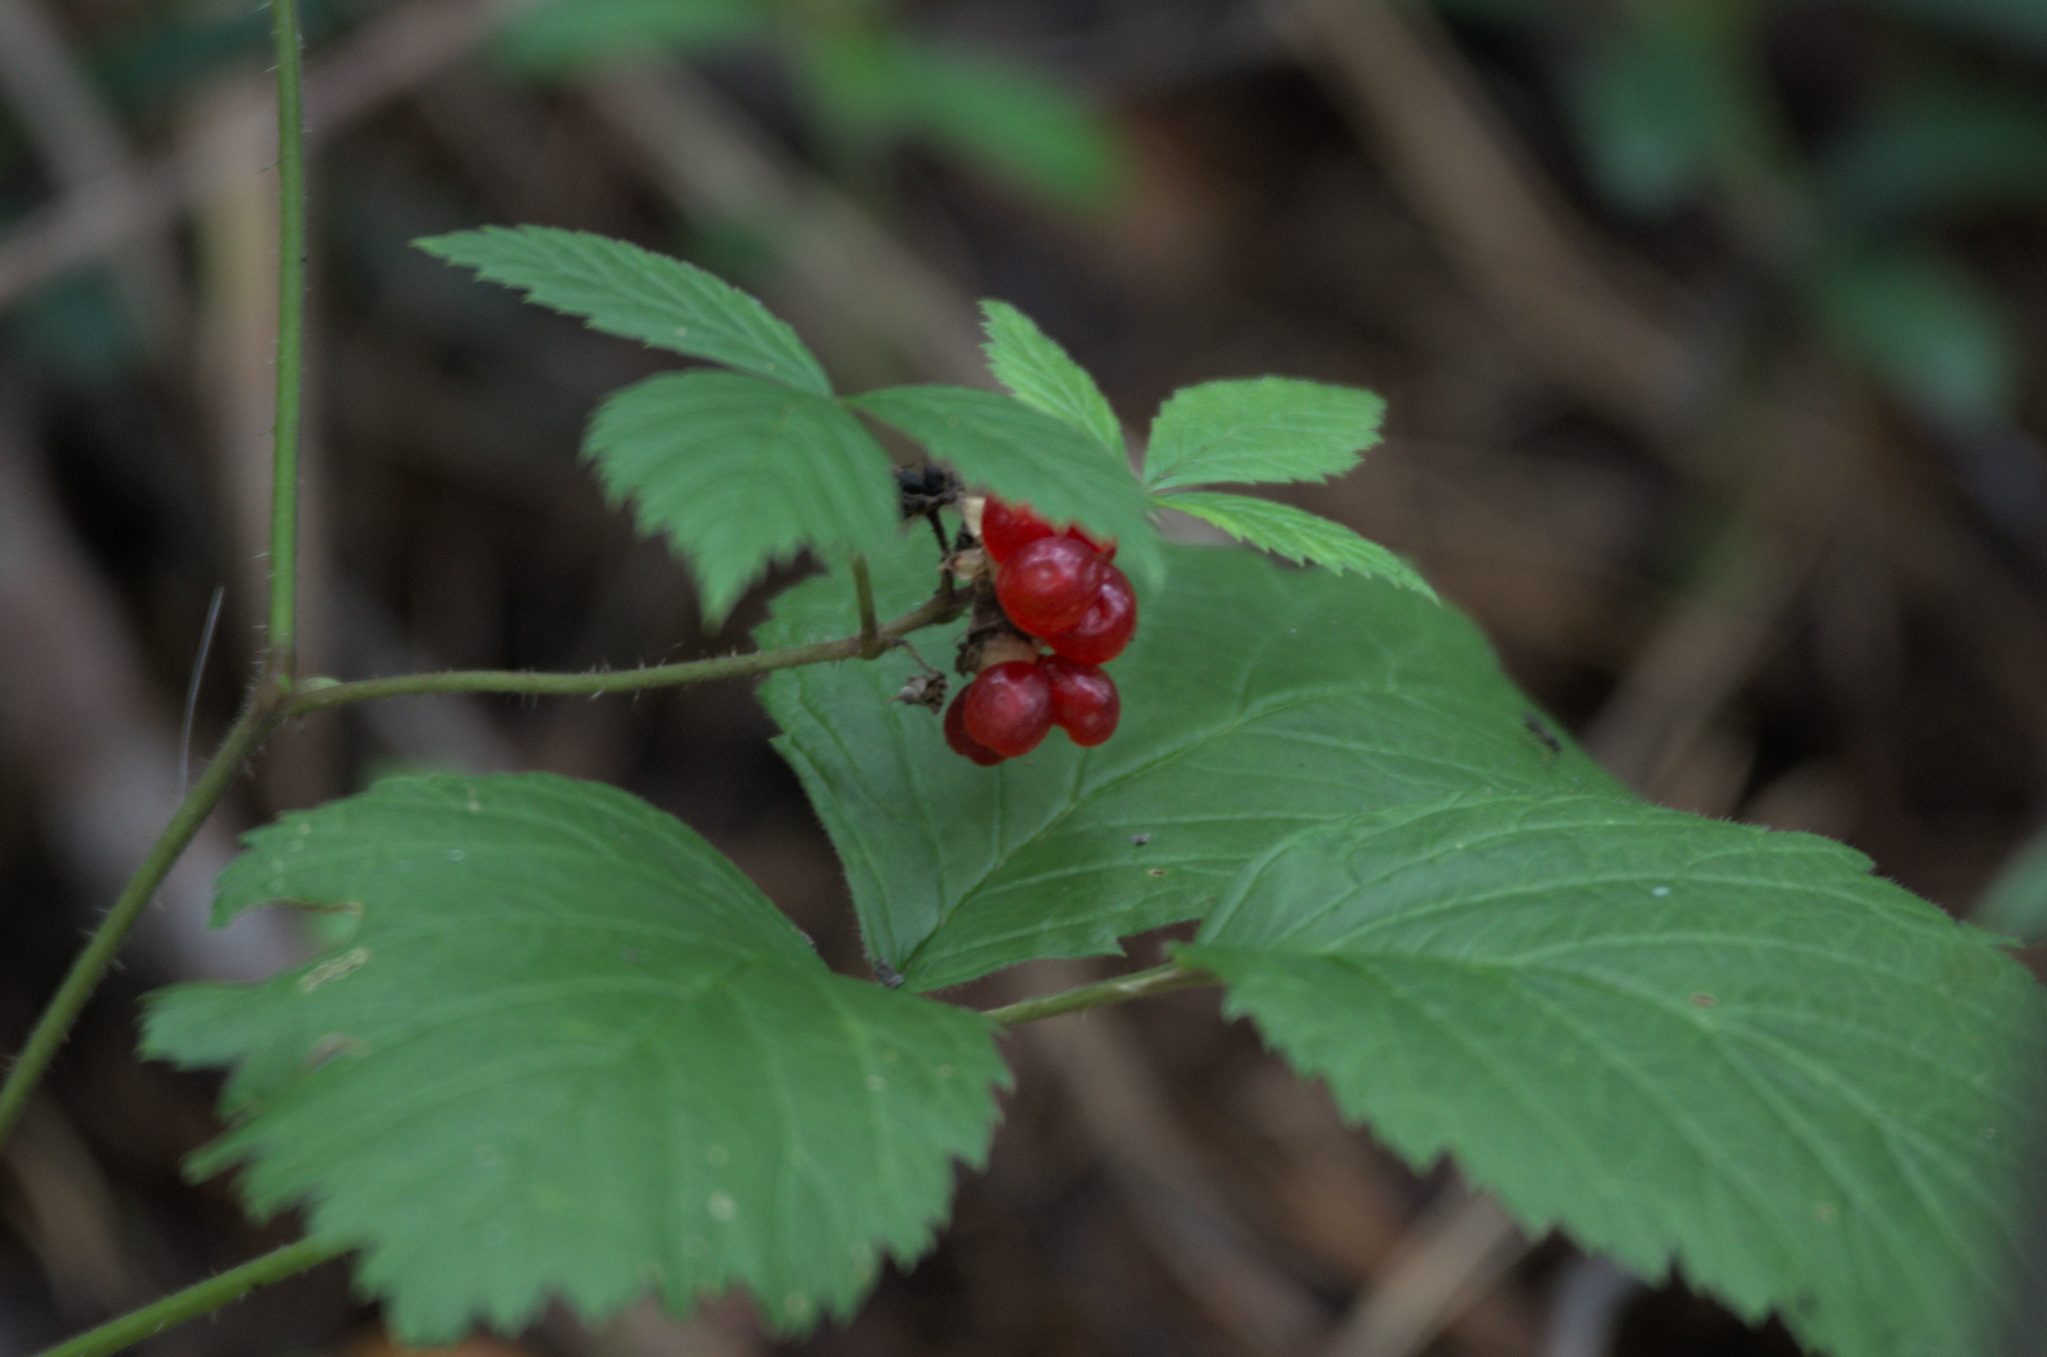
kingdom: Plantae
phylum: Tracheophyta
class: Magnoliopsida
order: Rosales
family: Rosaceae
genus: Rubus
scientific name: Rubus saxatilis
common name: Stone bramble
